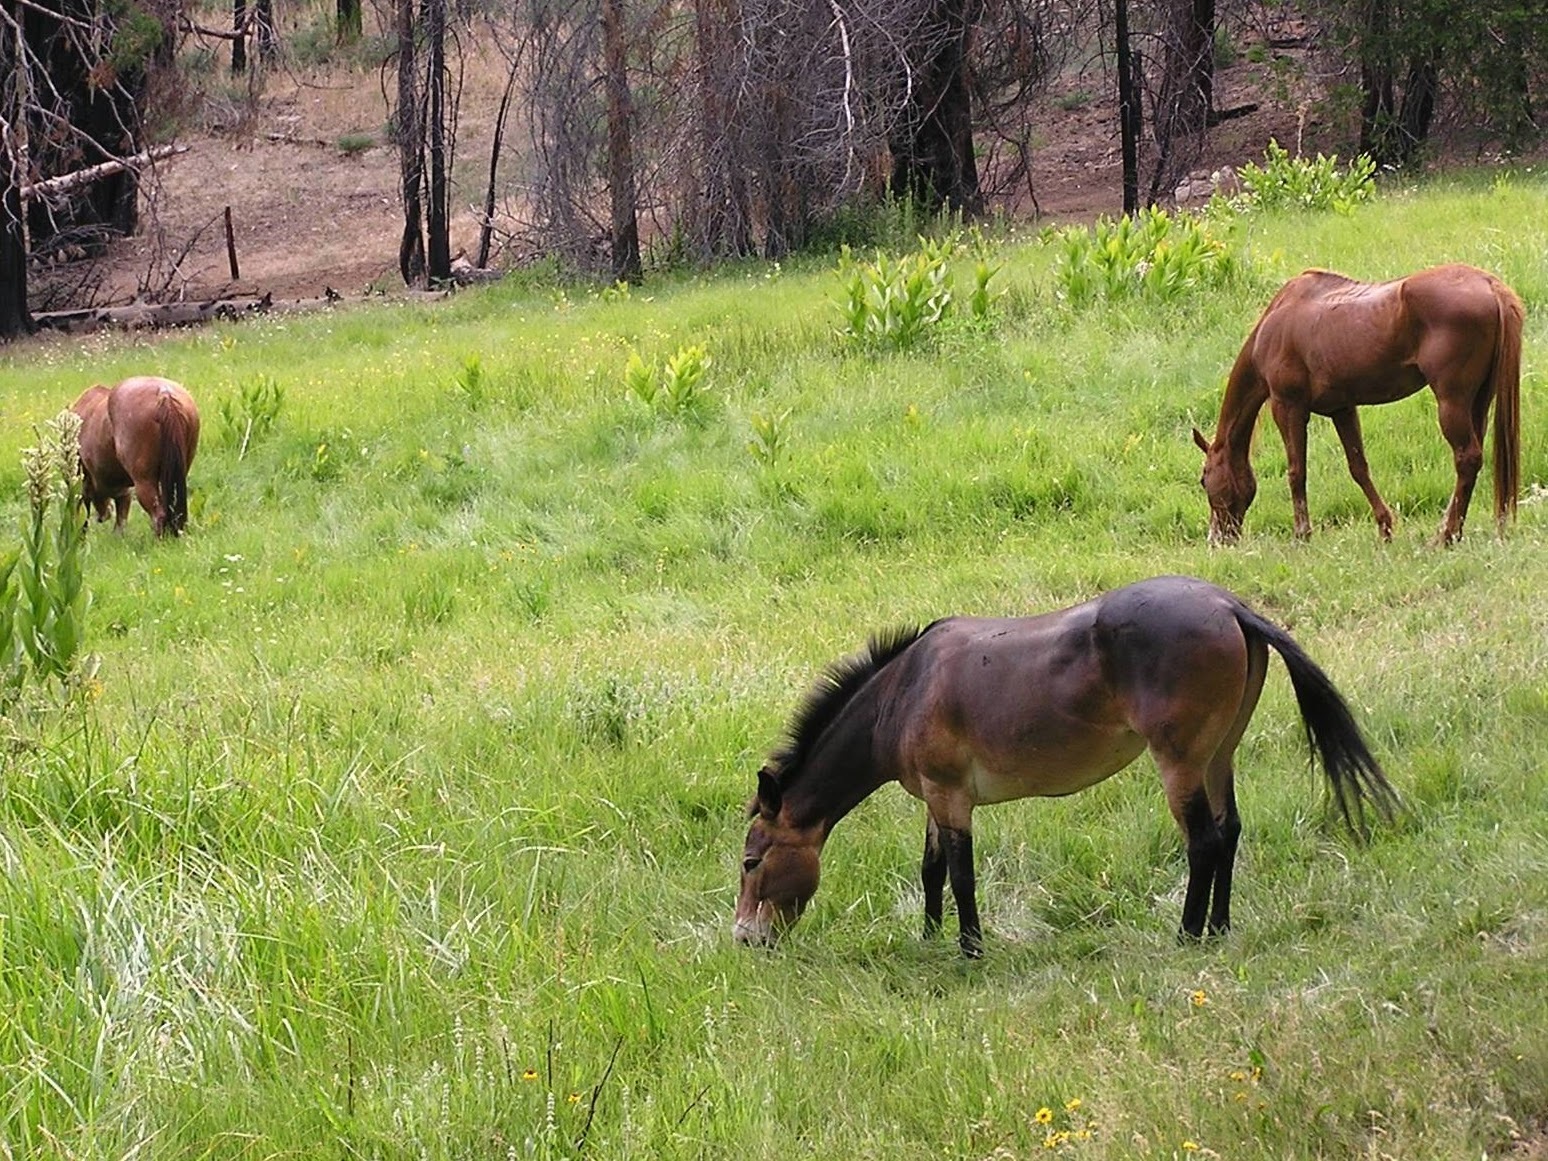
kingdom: Animalia
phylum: Chordata
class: Mammalia
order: Perissodactyla
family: Equidae
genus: Equus
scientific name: Equus caballus
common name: Horse
